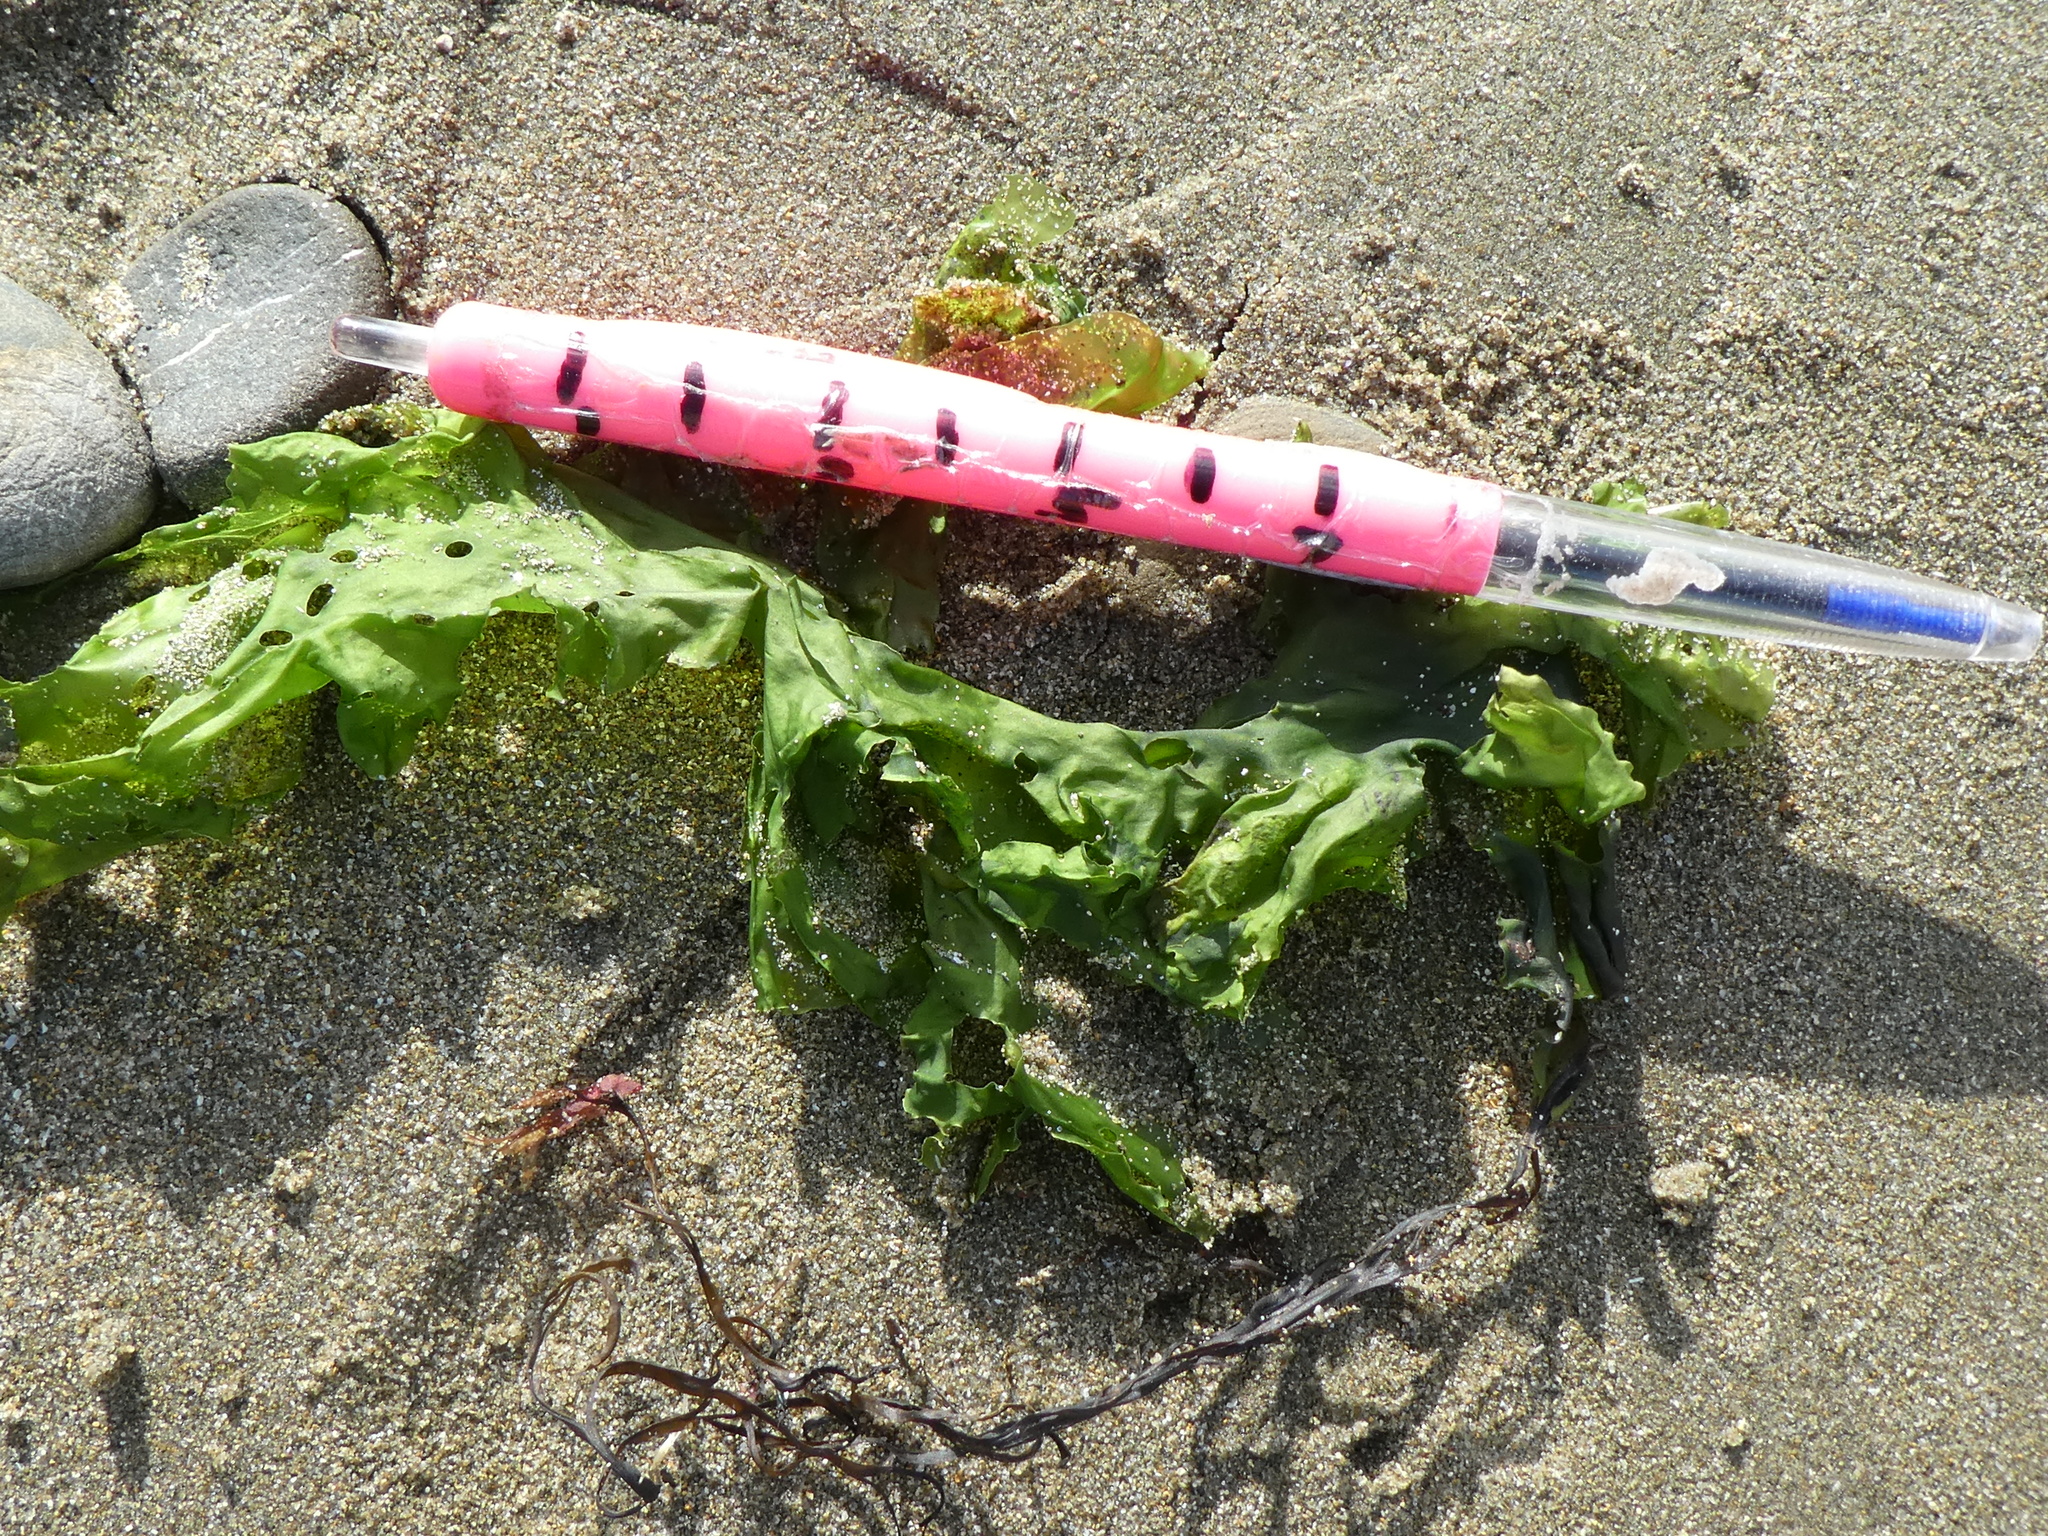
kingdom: Plantae
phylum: Chlorophyta
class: Ulvophyceae
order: Ulvales
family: Ulvaceae
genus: Ulva
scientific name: Ulva
